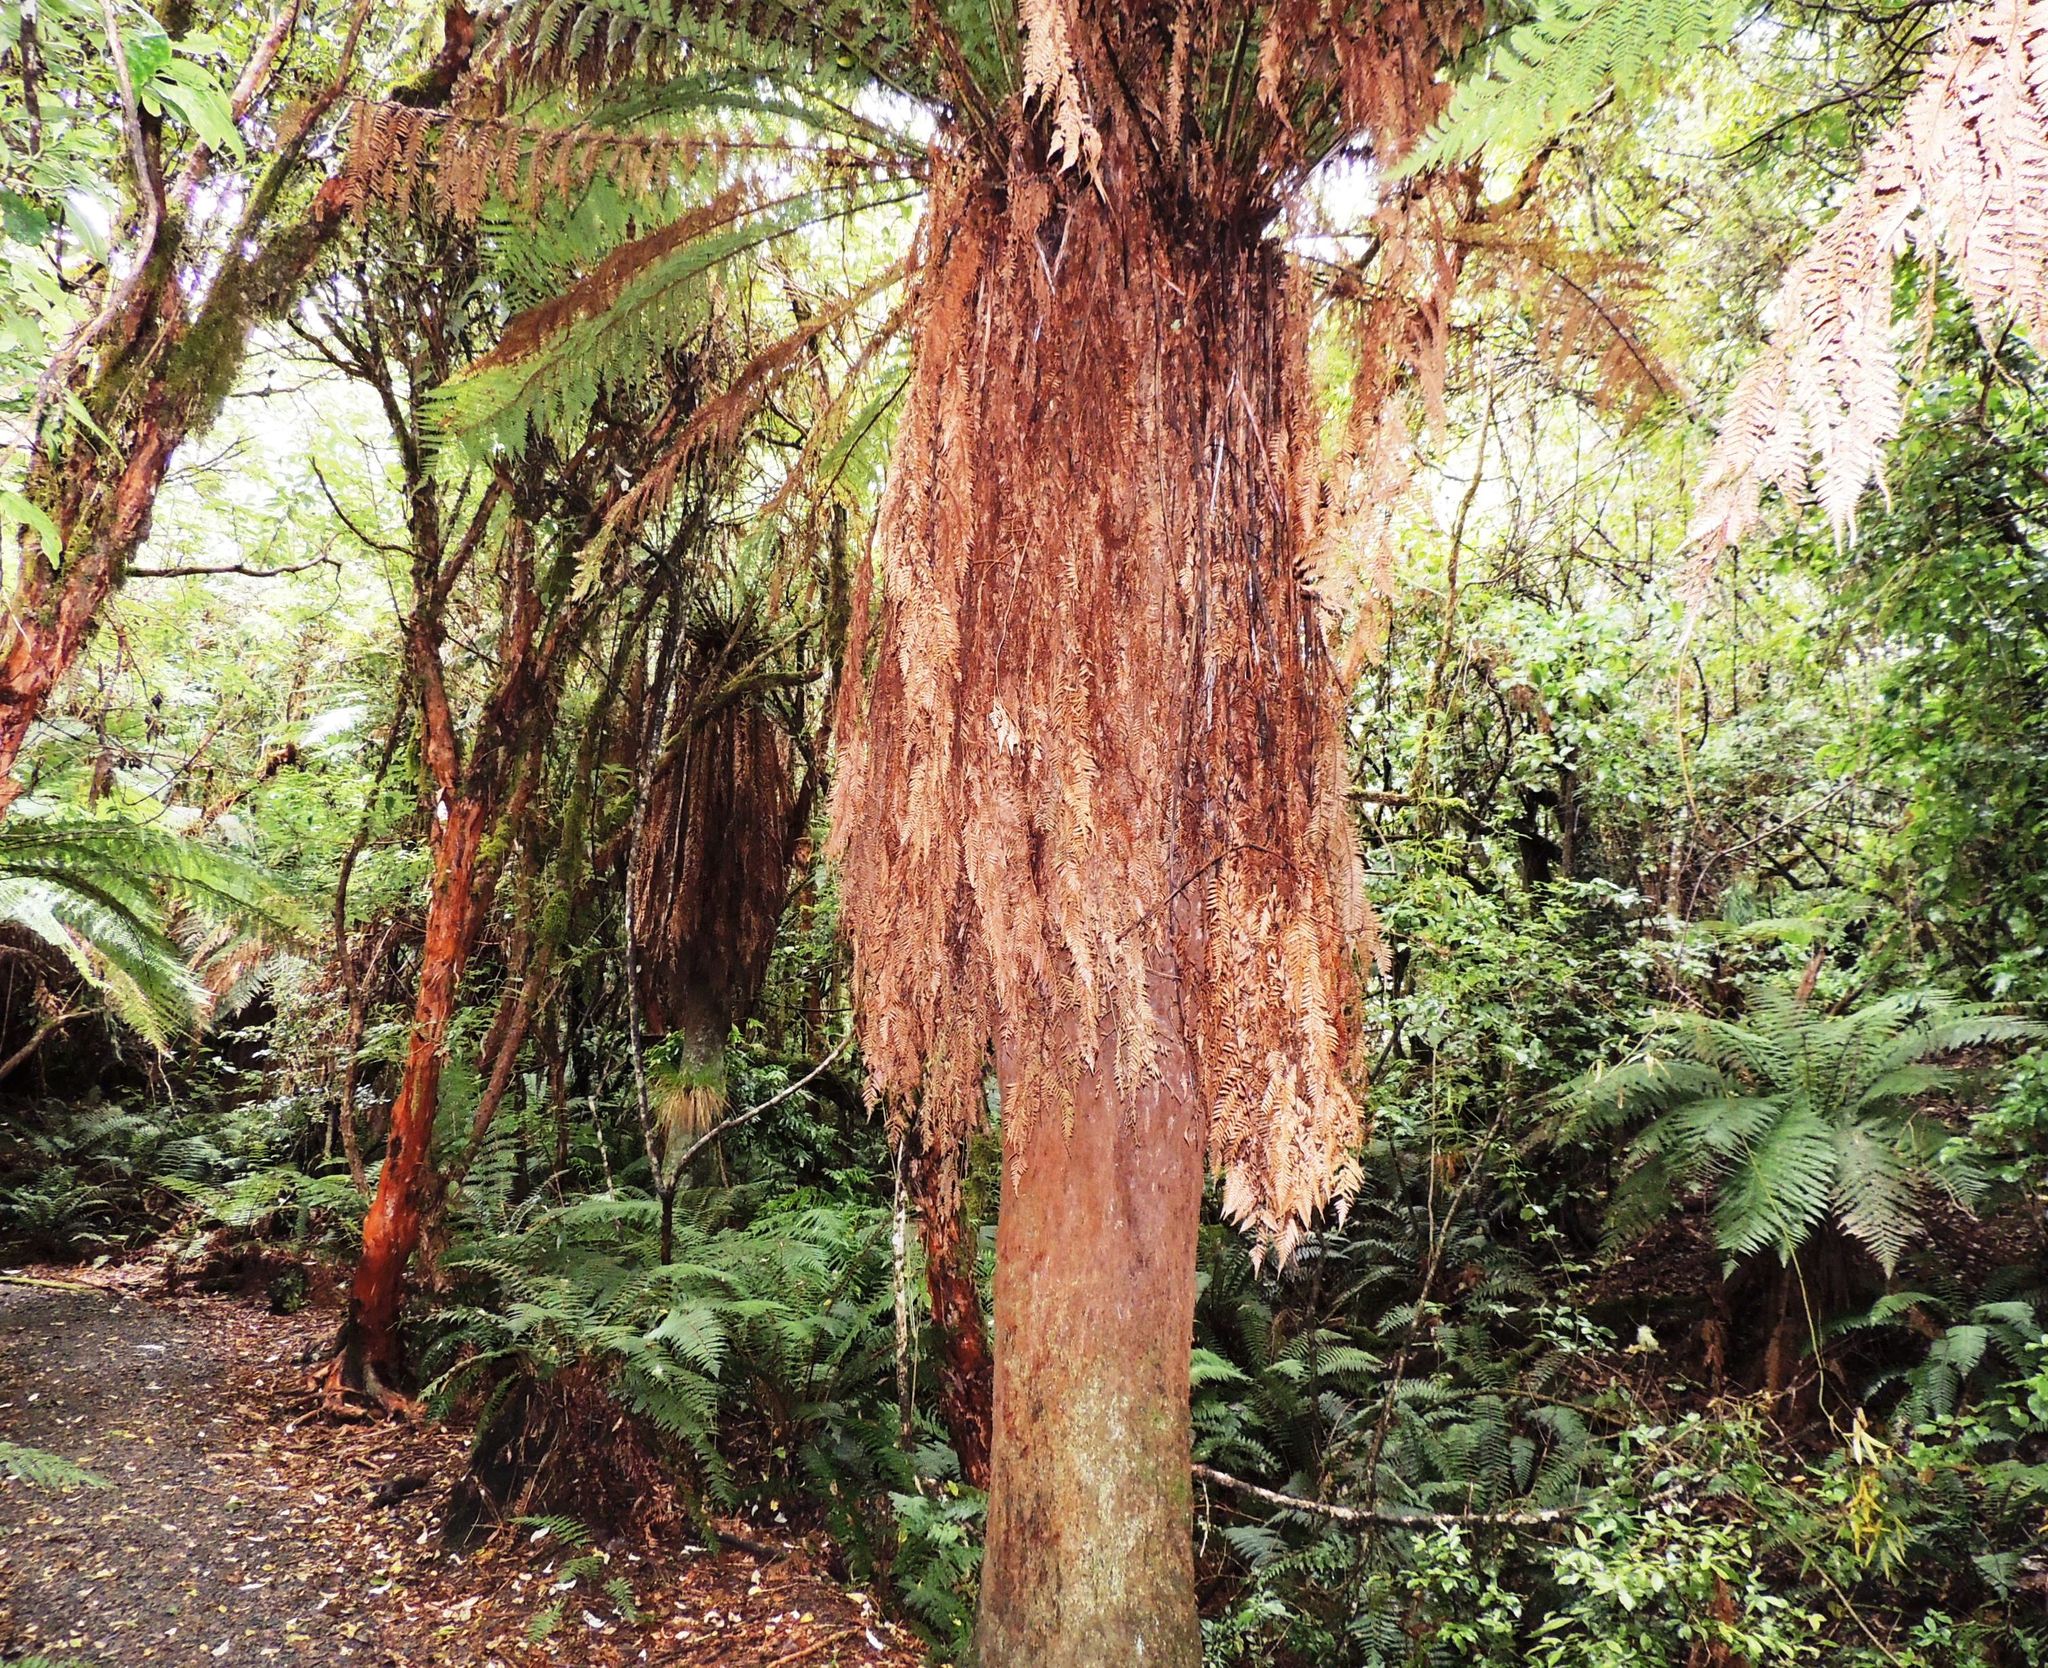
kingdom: Plantae
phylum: Tracheophyta
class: Polypodiopsida
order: Cyatheales
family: Dicksoniaceae
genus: Dicksonia
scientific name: Dicksonia fibrosa
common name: Golden tree fern
